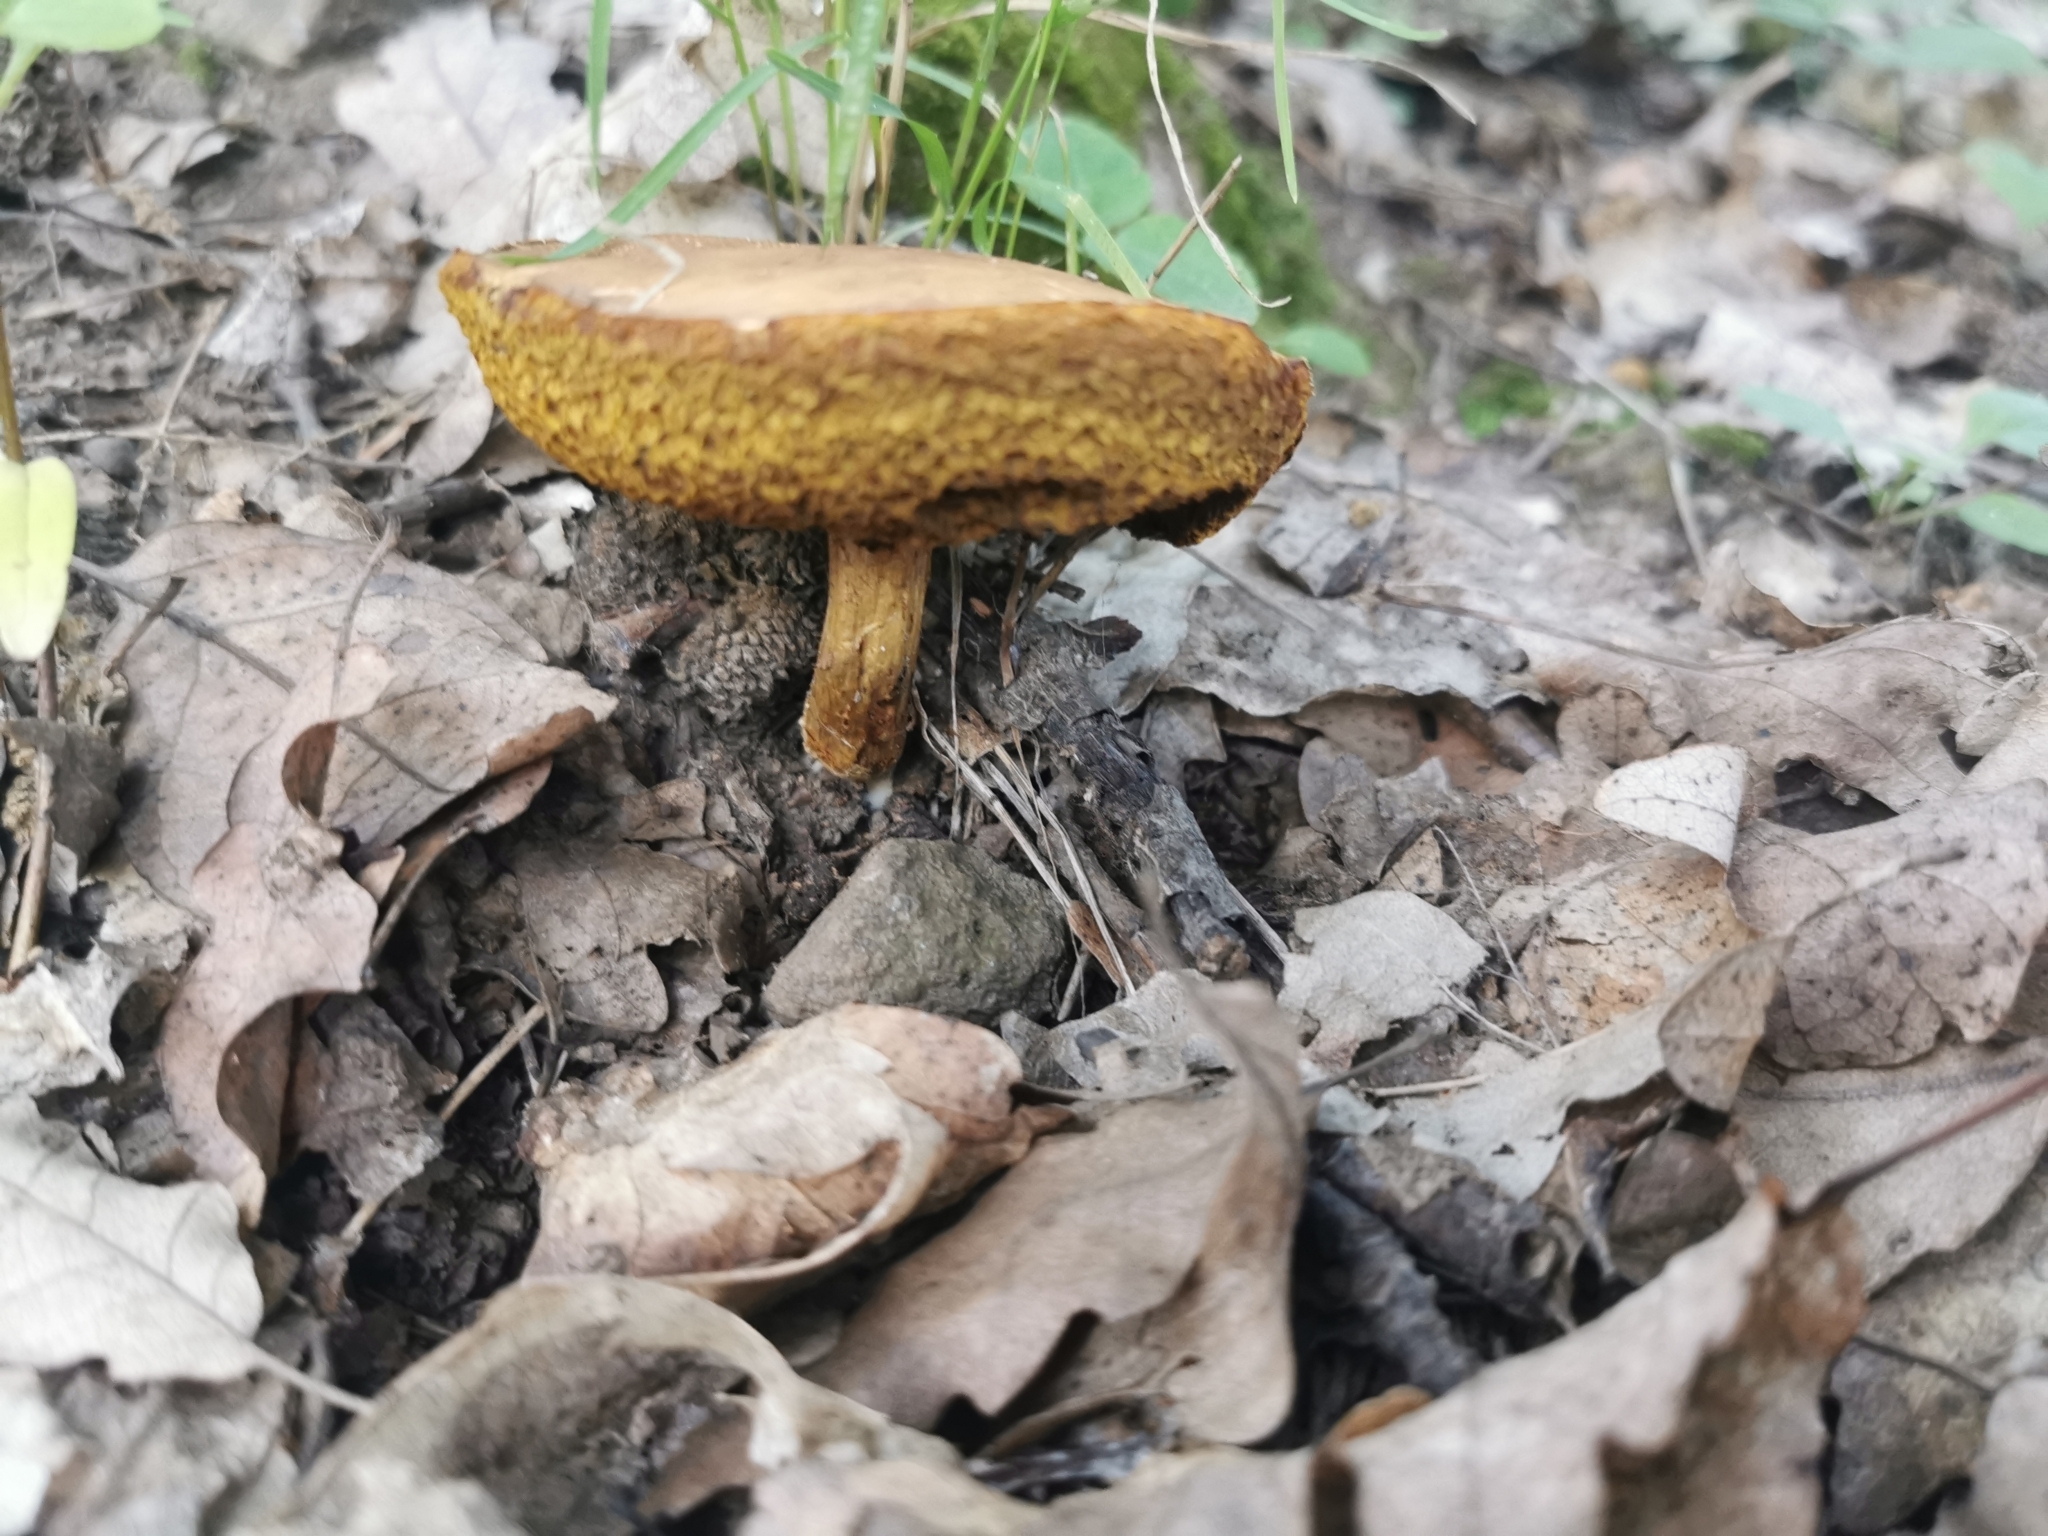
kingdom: Fungi
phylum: Basidiomycota
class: Agaricomycetes
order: Boletales
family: Boletaceae
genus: Xerocomus
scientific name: Xerocomus subtomentosus
